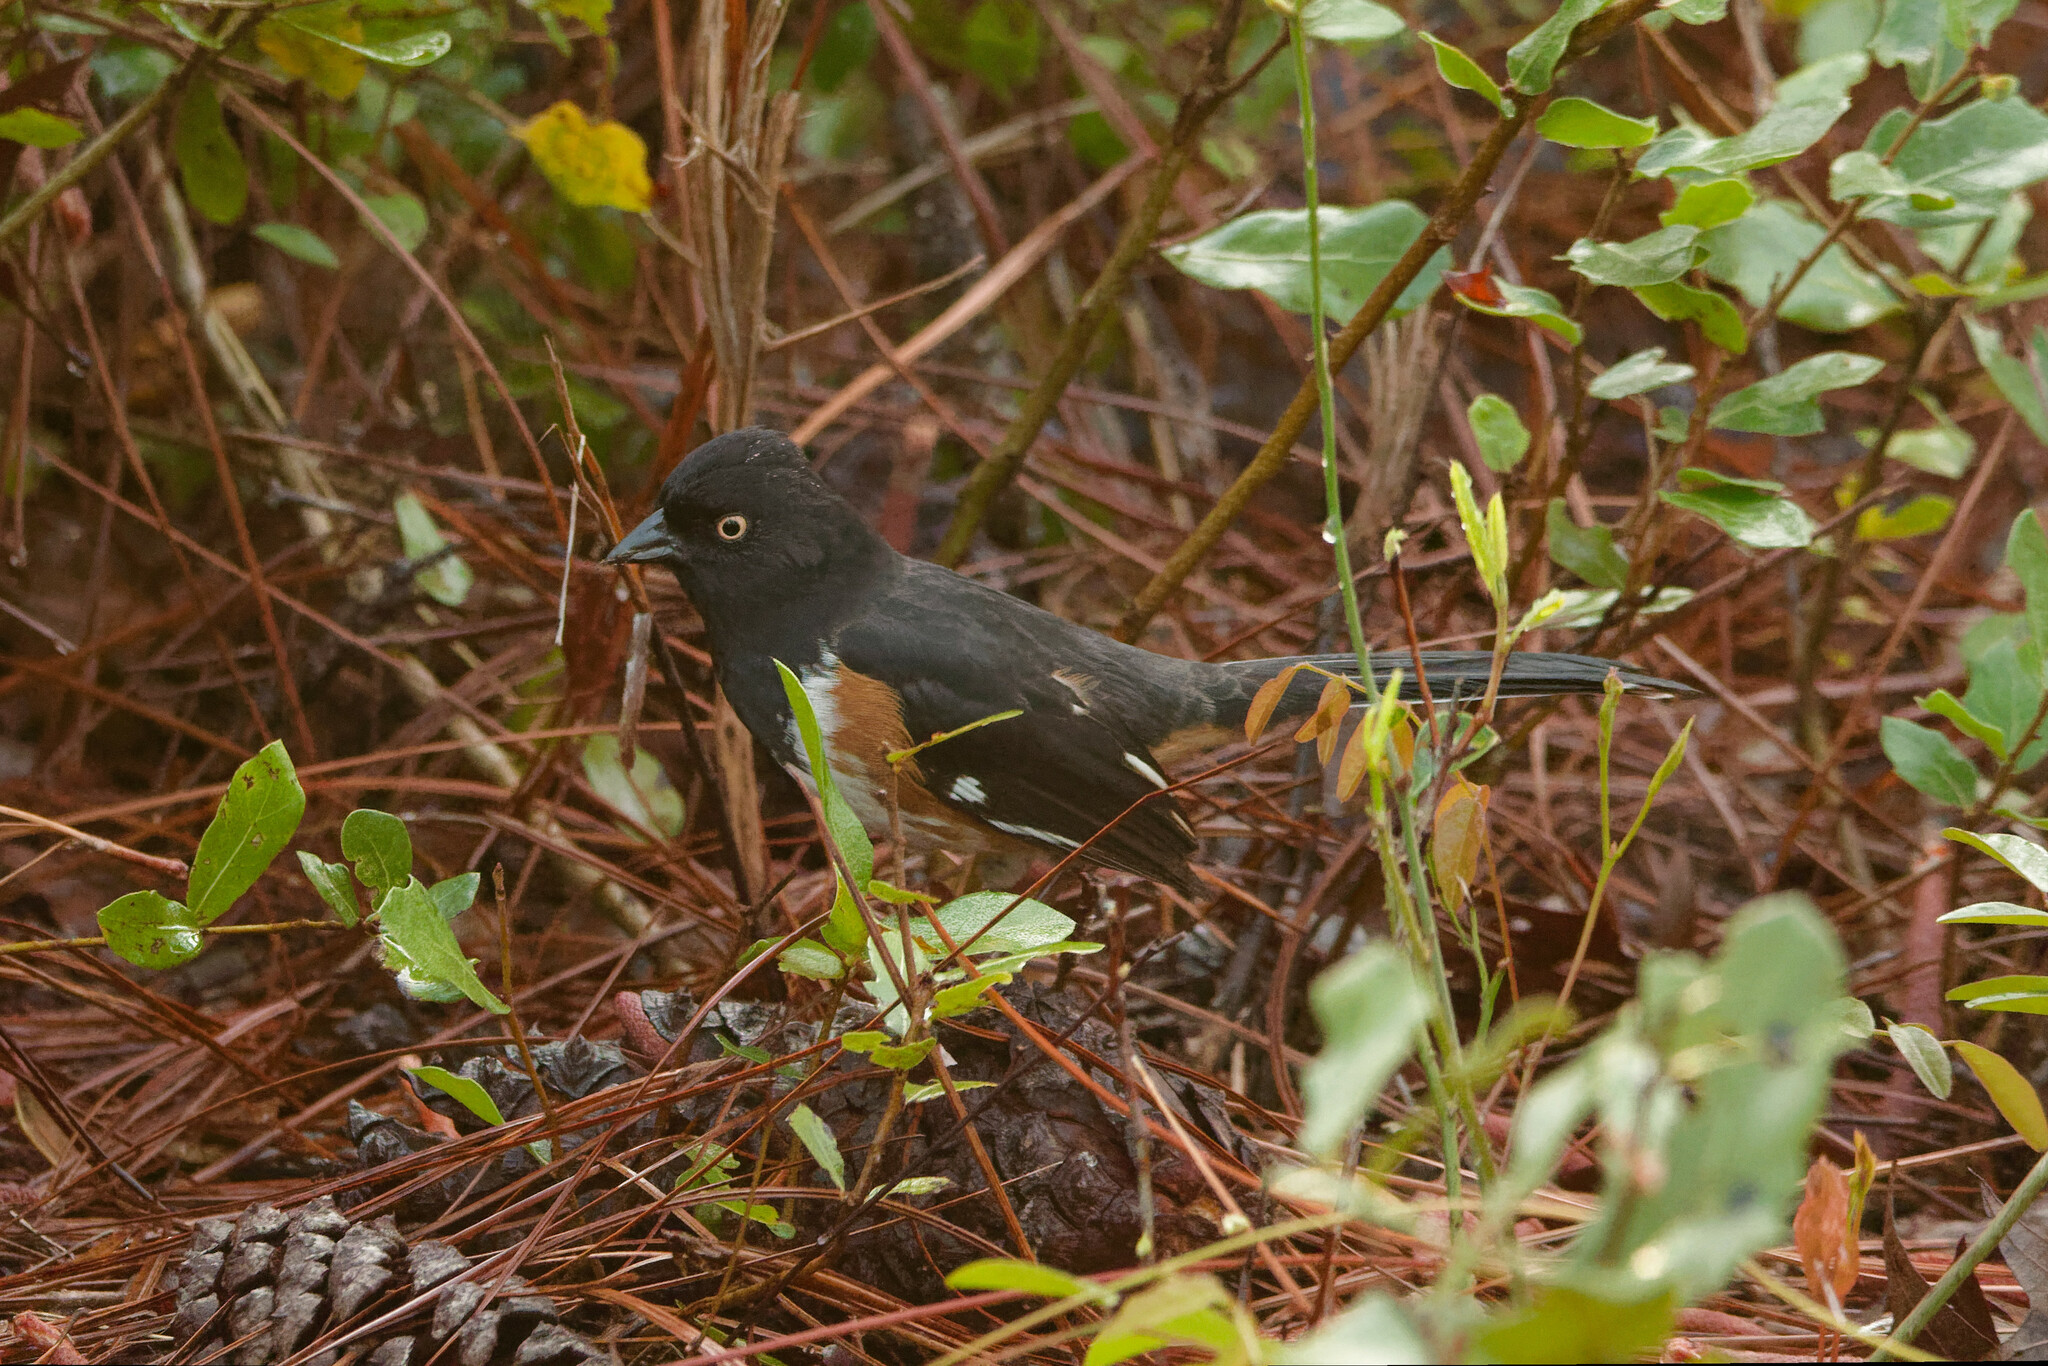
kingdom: Animalia
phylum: Chordata
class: Aves
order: Passeriformes
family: Passerellidae
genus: Pipilo
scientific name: Pipilo erythrophthalmus
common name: Eastern towhee
